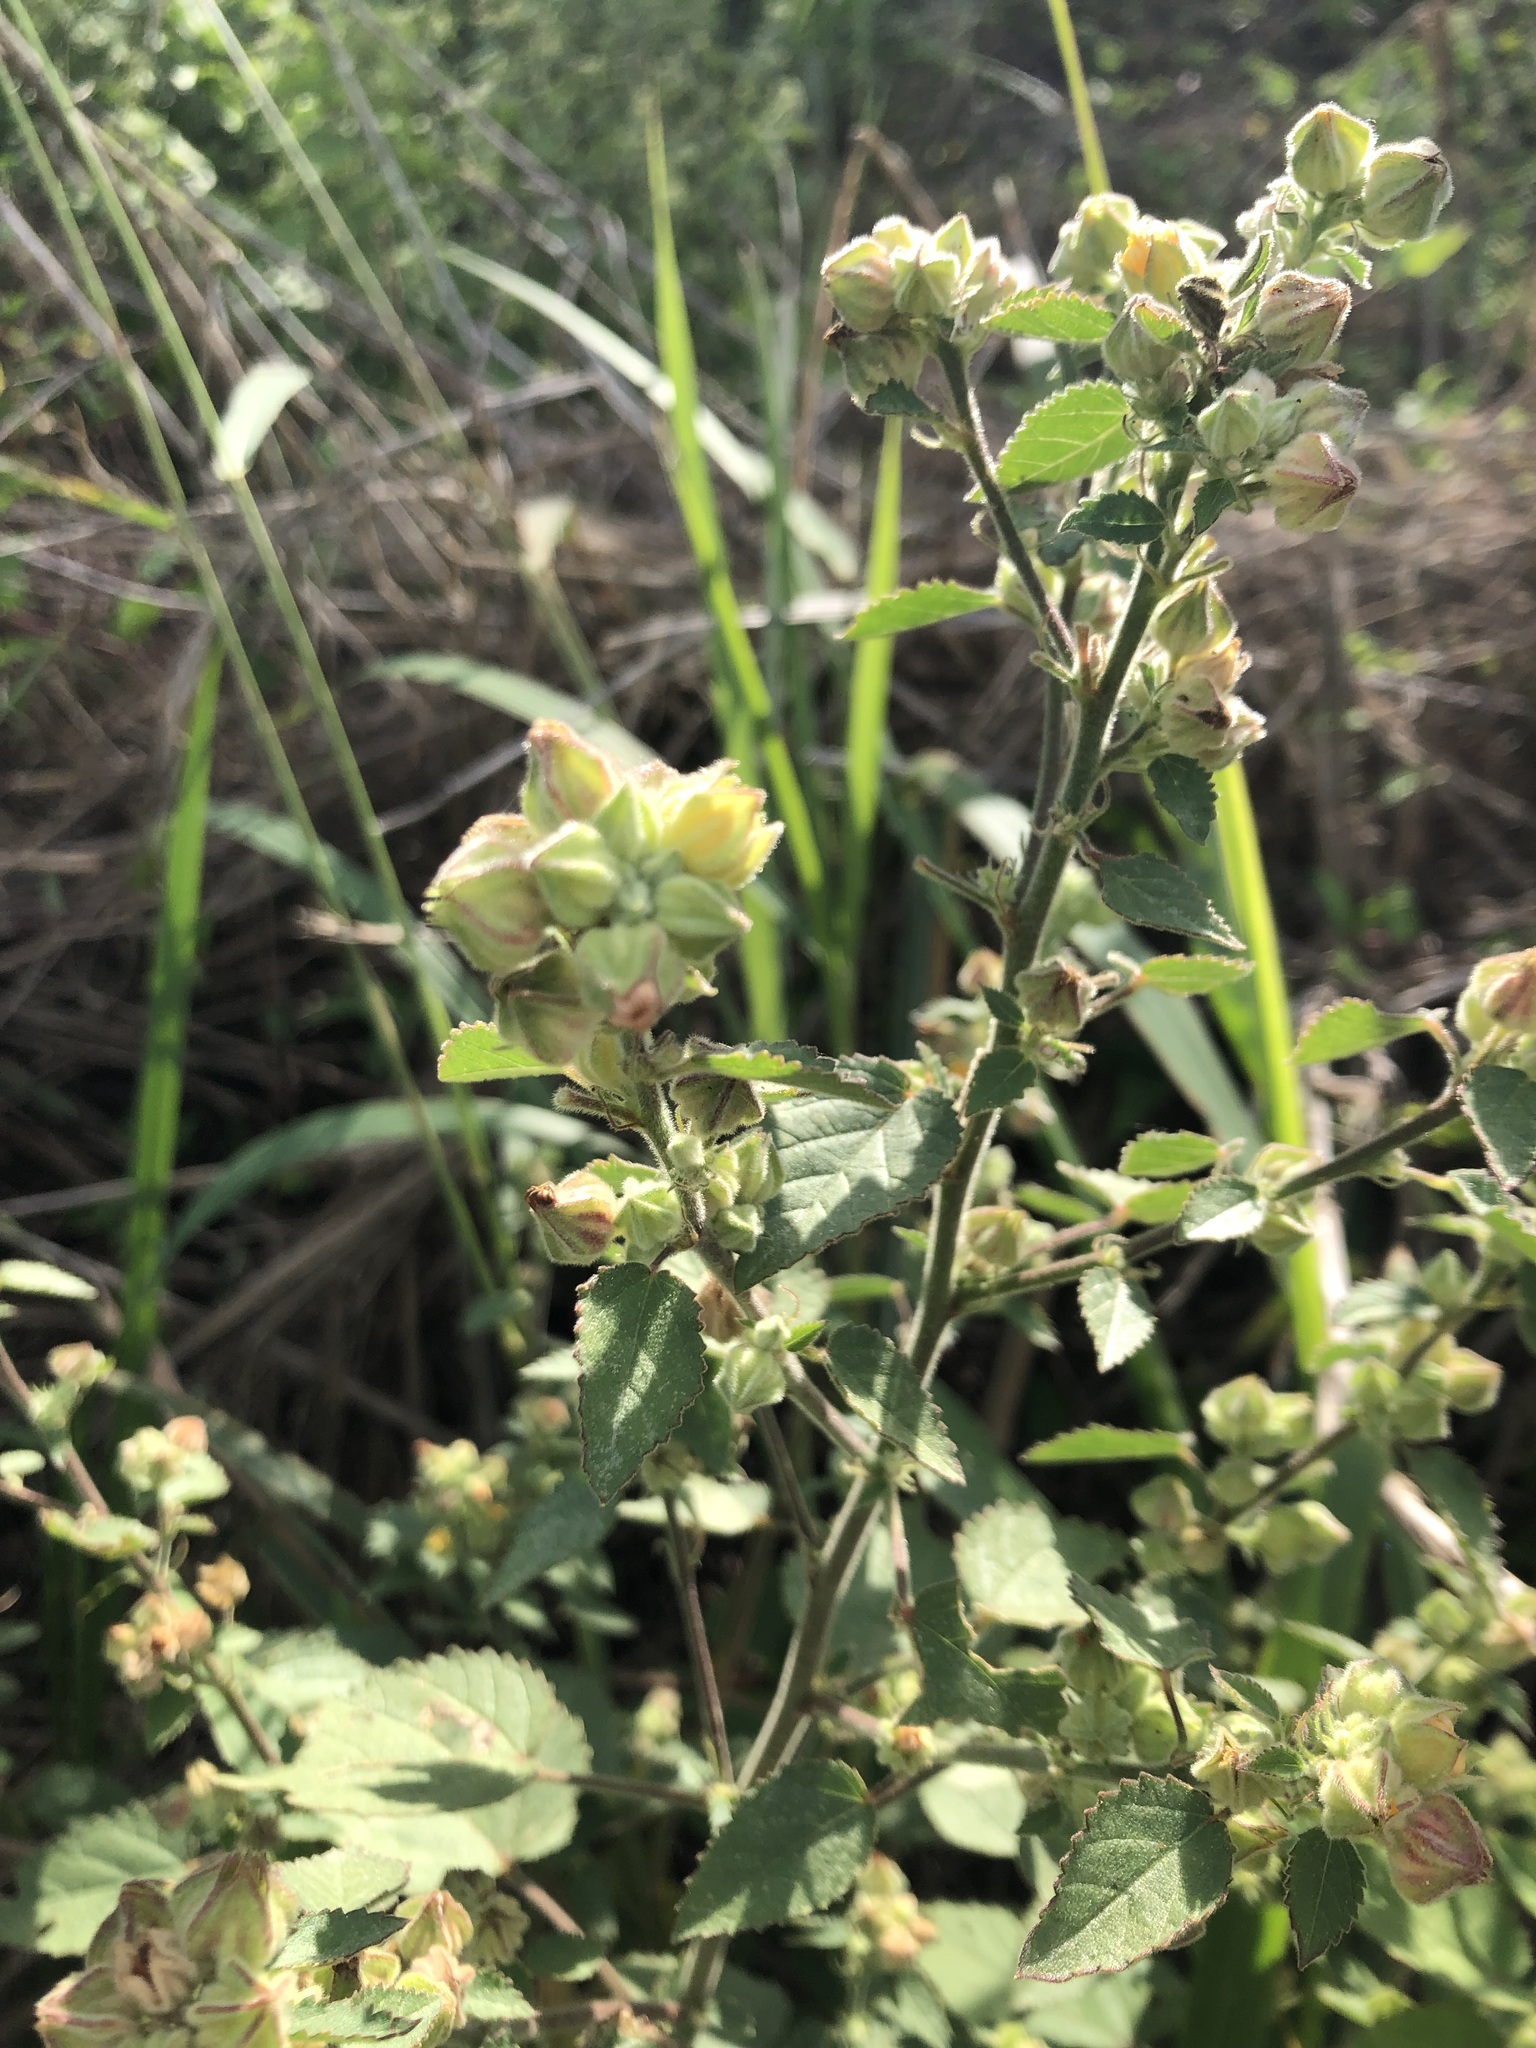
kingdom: Plantae
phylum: Tracheophyta
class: Magnoliopsida
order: Malvales
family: Malvaceae
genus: Sida
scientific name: Sida cordifolia
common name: Ilima
